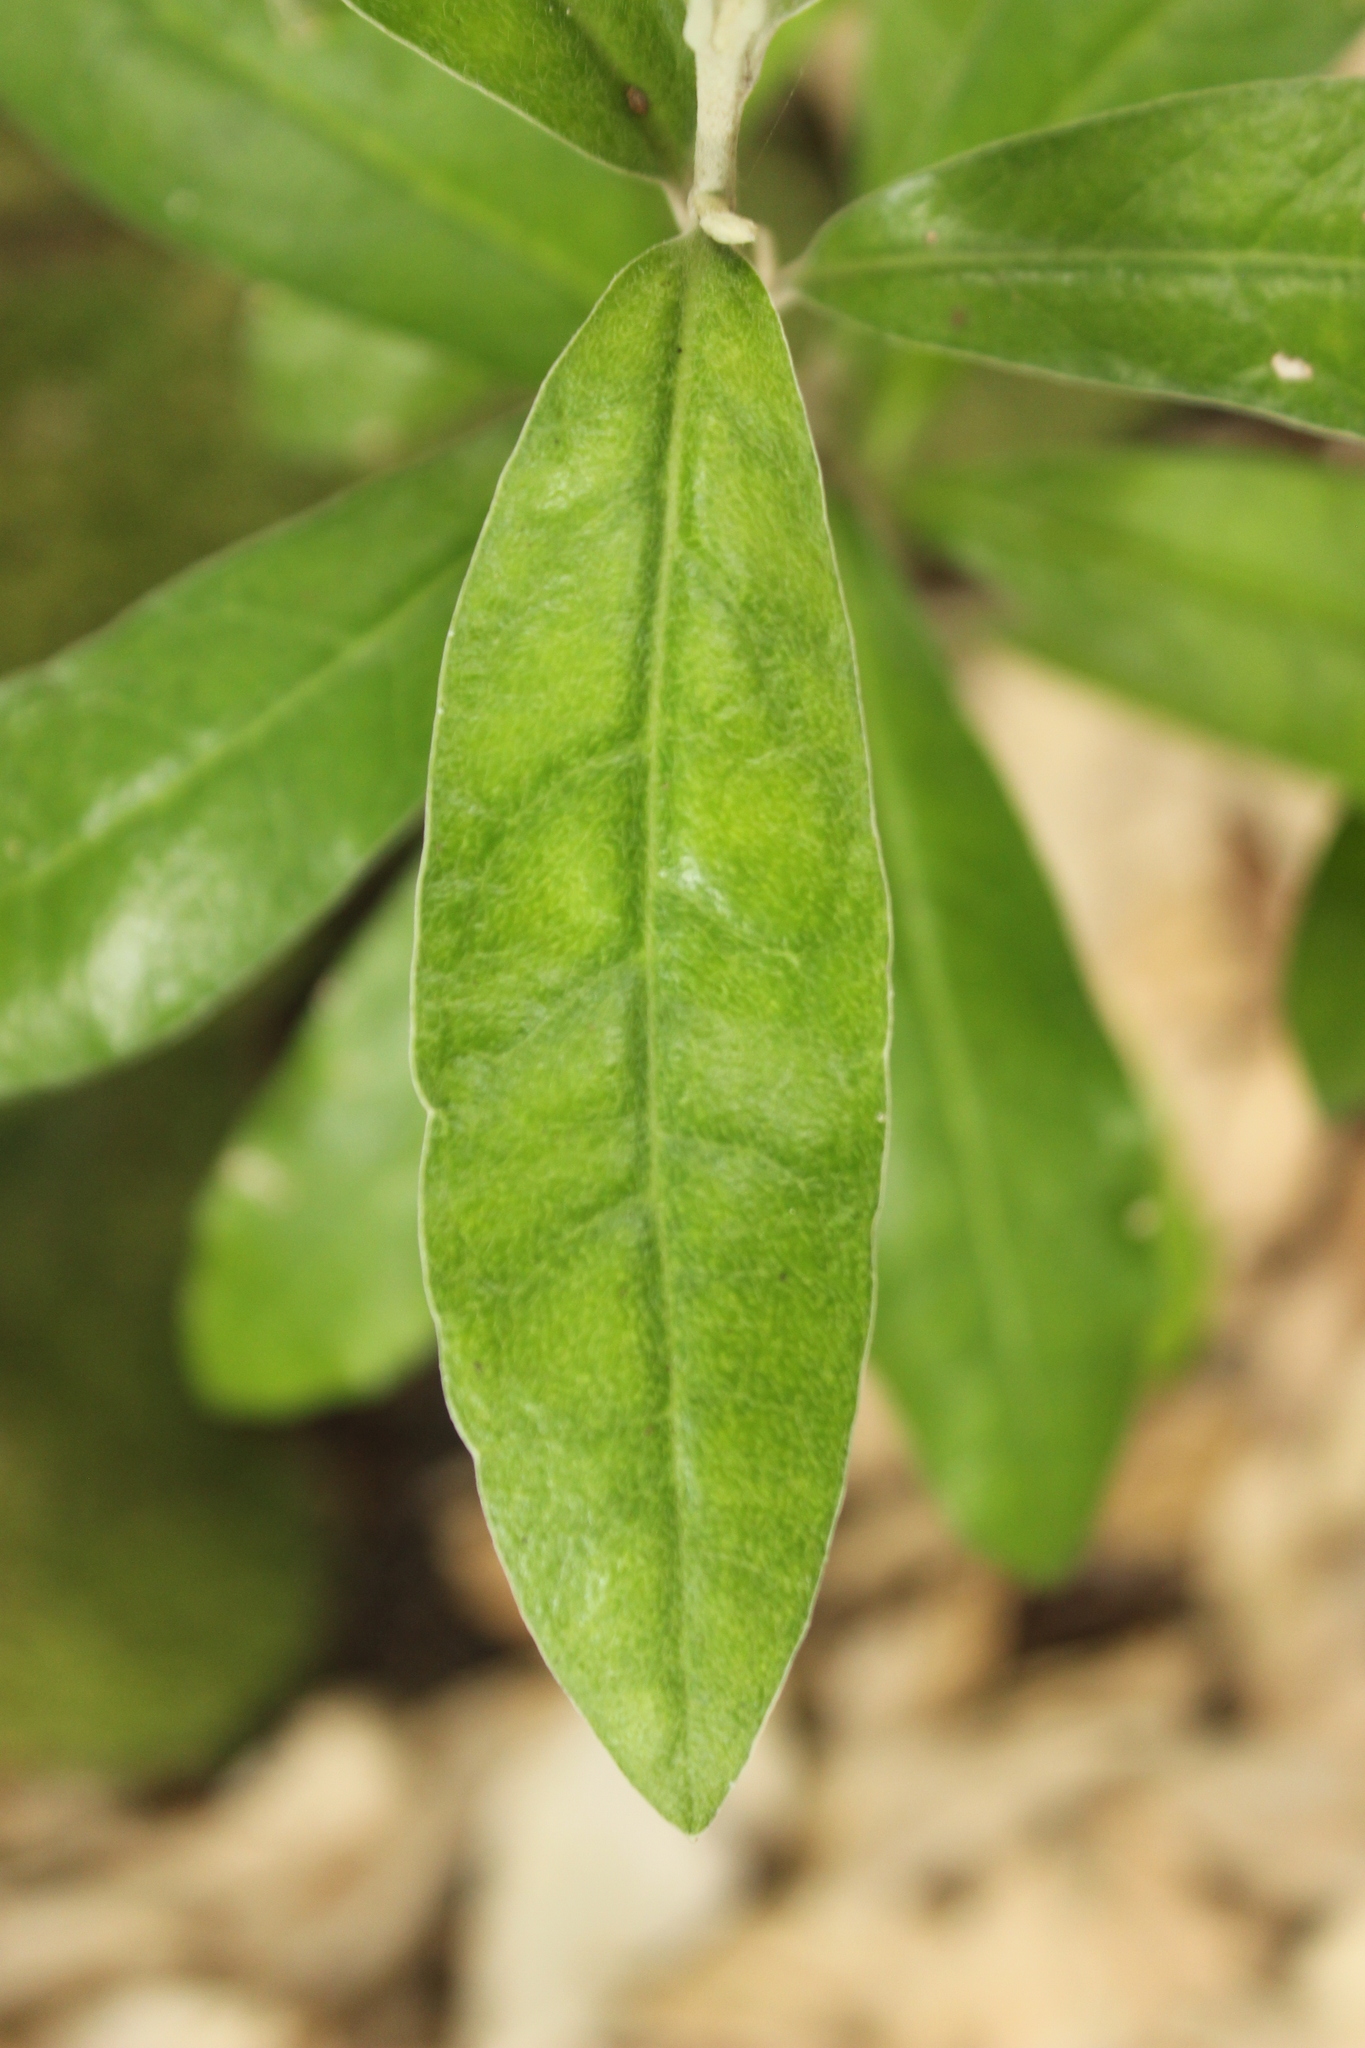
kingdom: Plantae
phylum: Tracheophyta
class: Magnoliopsida
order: Asterales
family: Argophyllaceae
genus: Corokia
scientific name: Corokia macrocarpa
